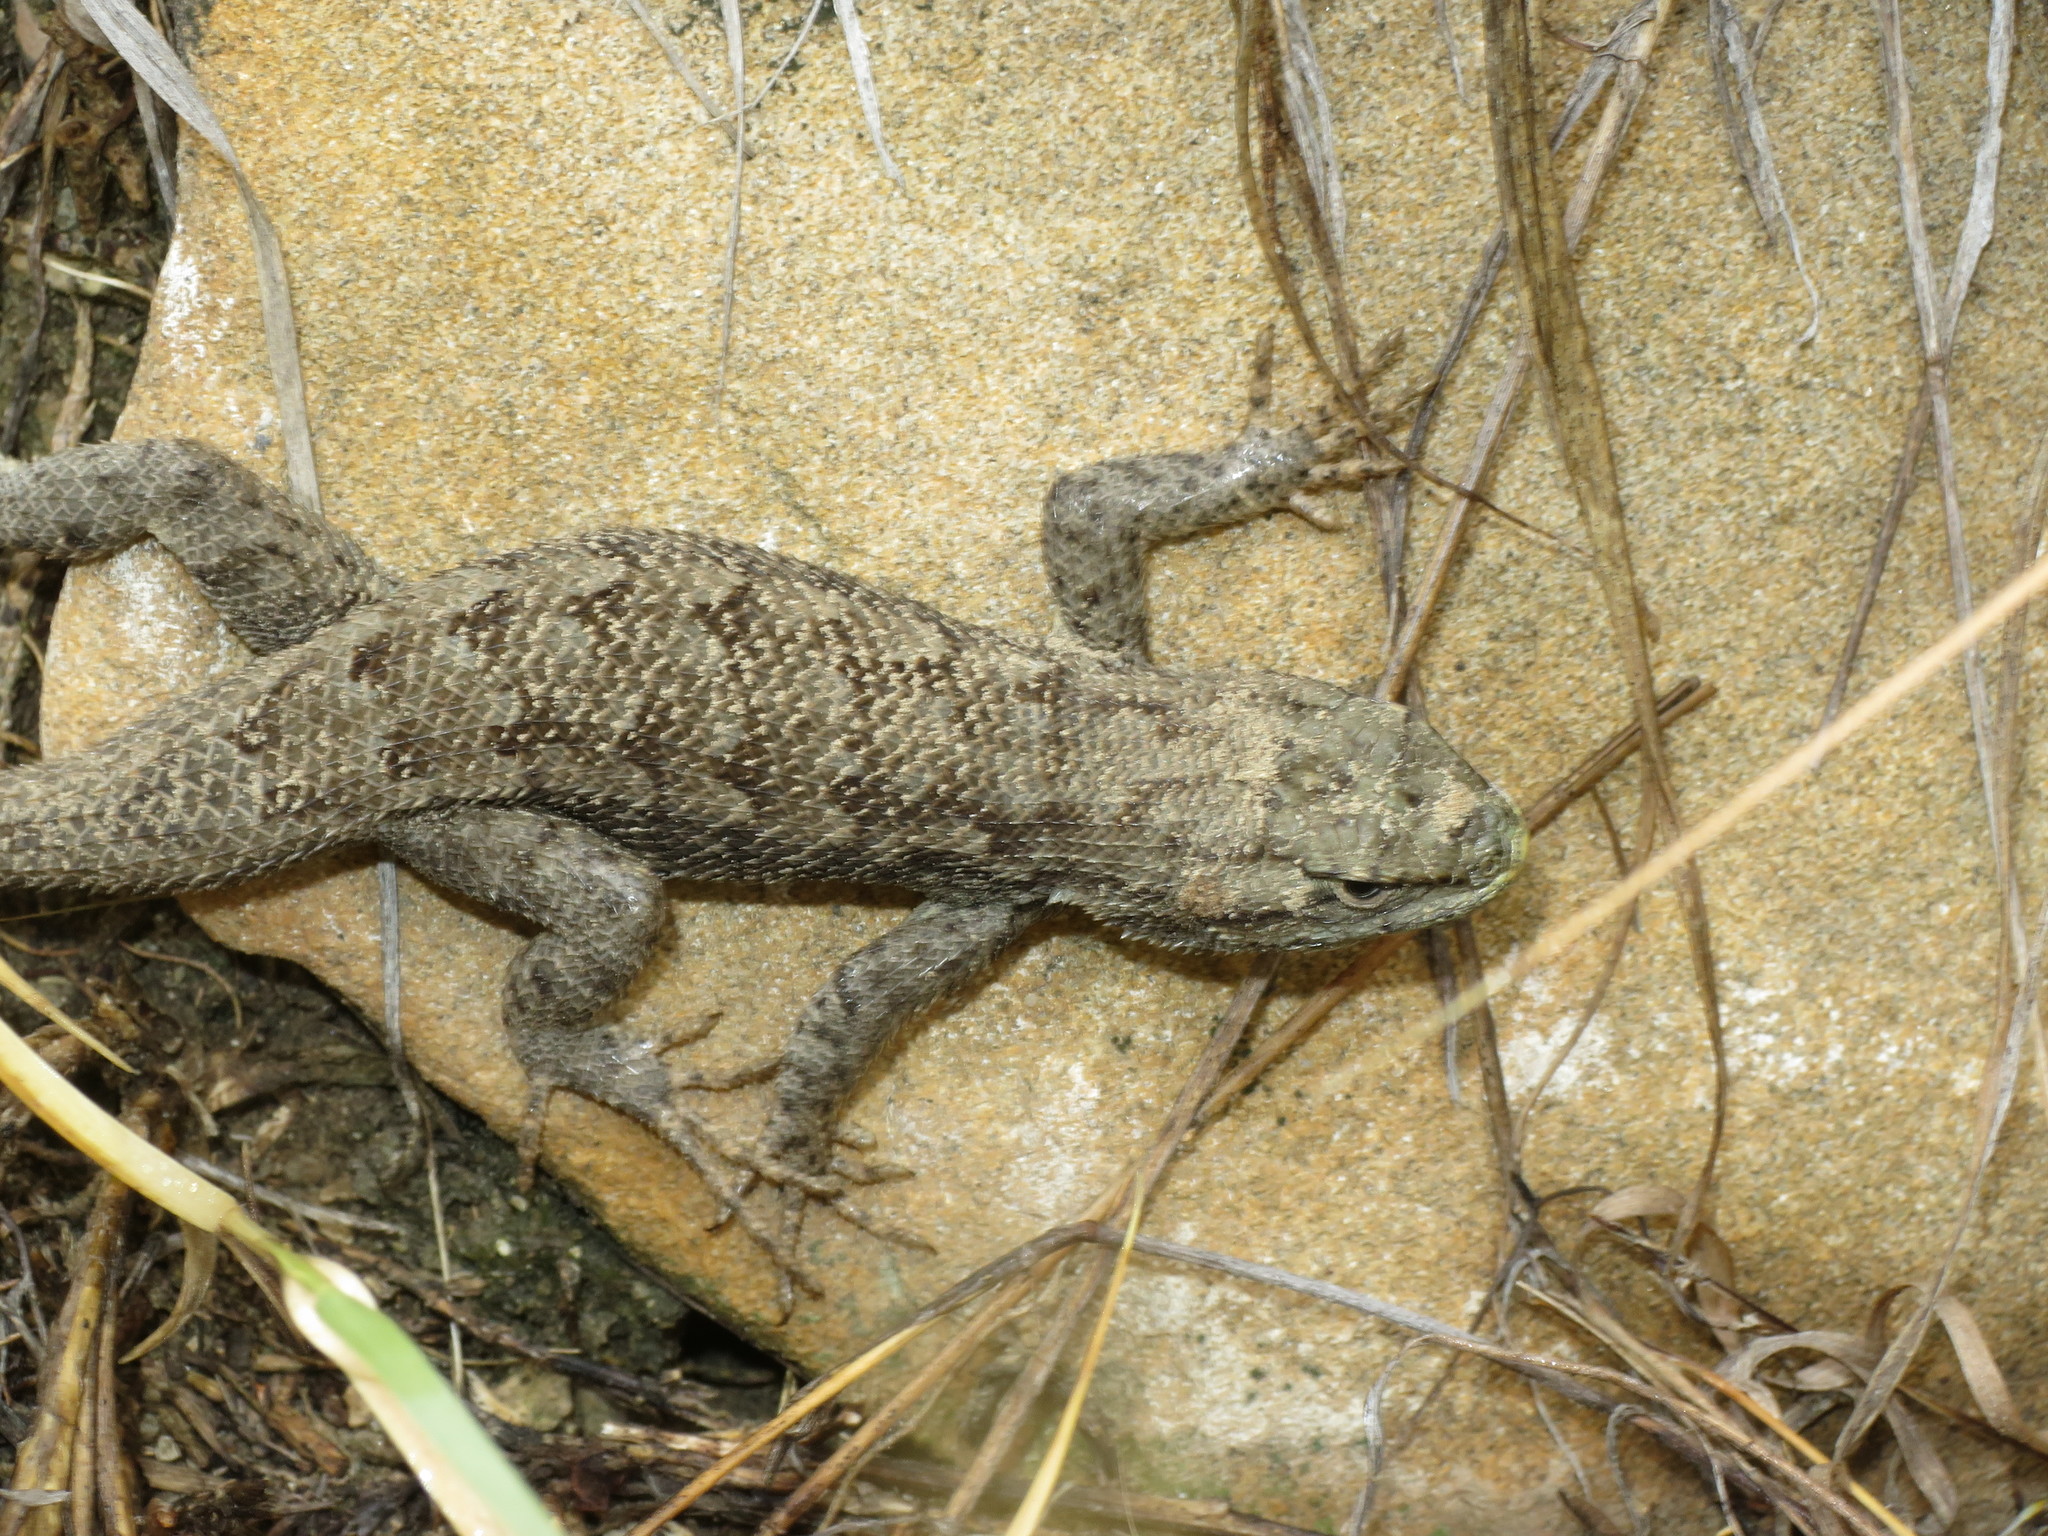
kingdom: Animalia
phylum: Chordata
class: Squamata
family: Phrynosomatidae
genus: Sceloporus
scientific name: Sceloporus consobrinus
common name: Southern prairie lizard
